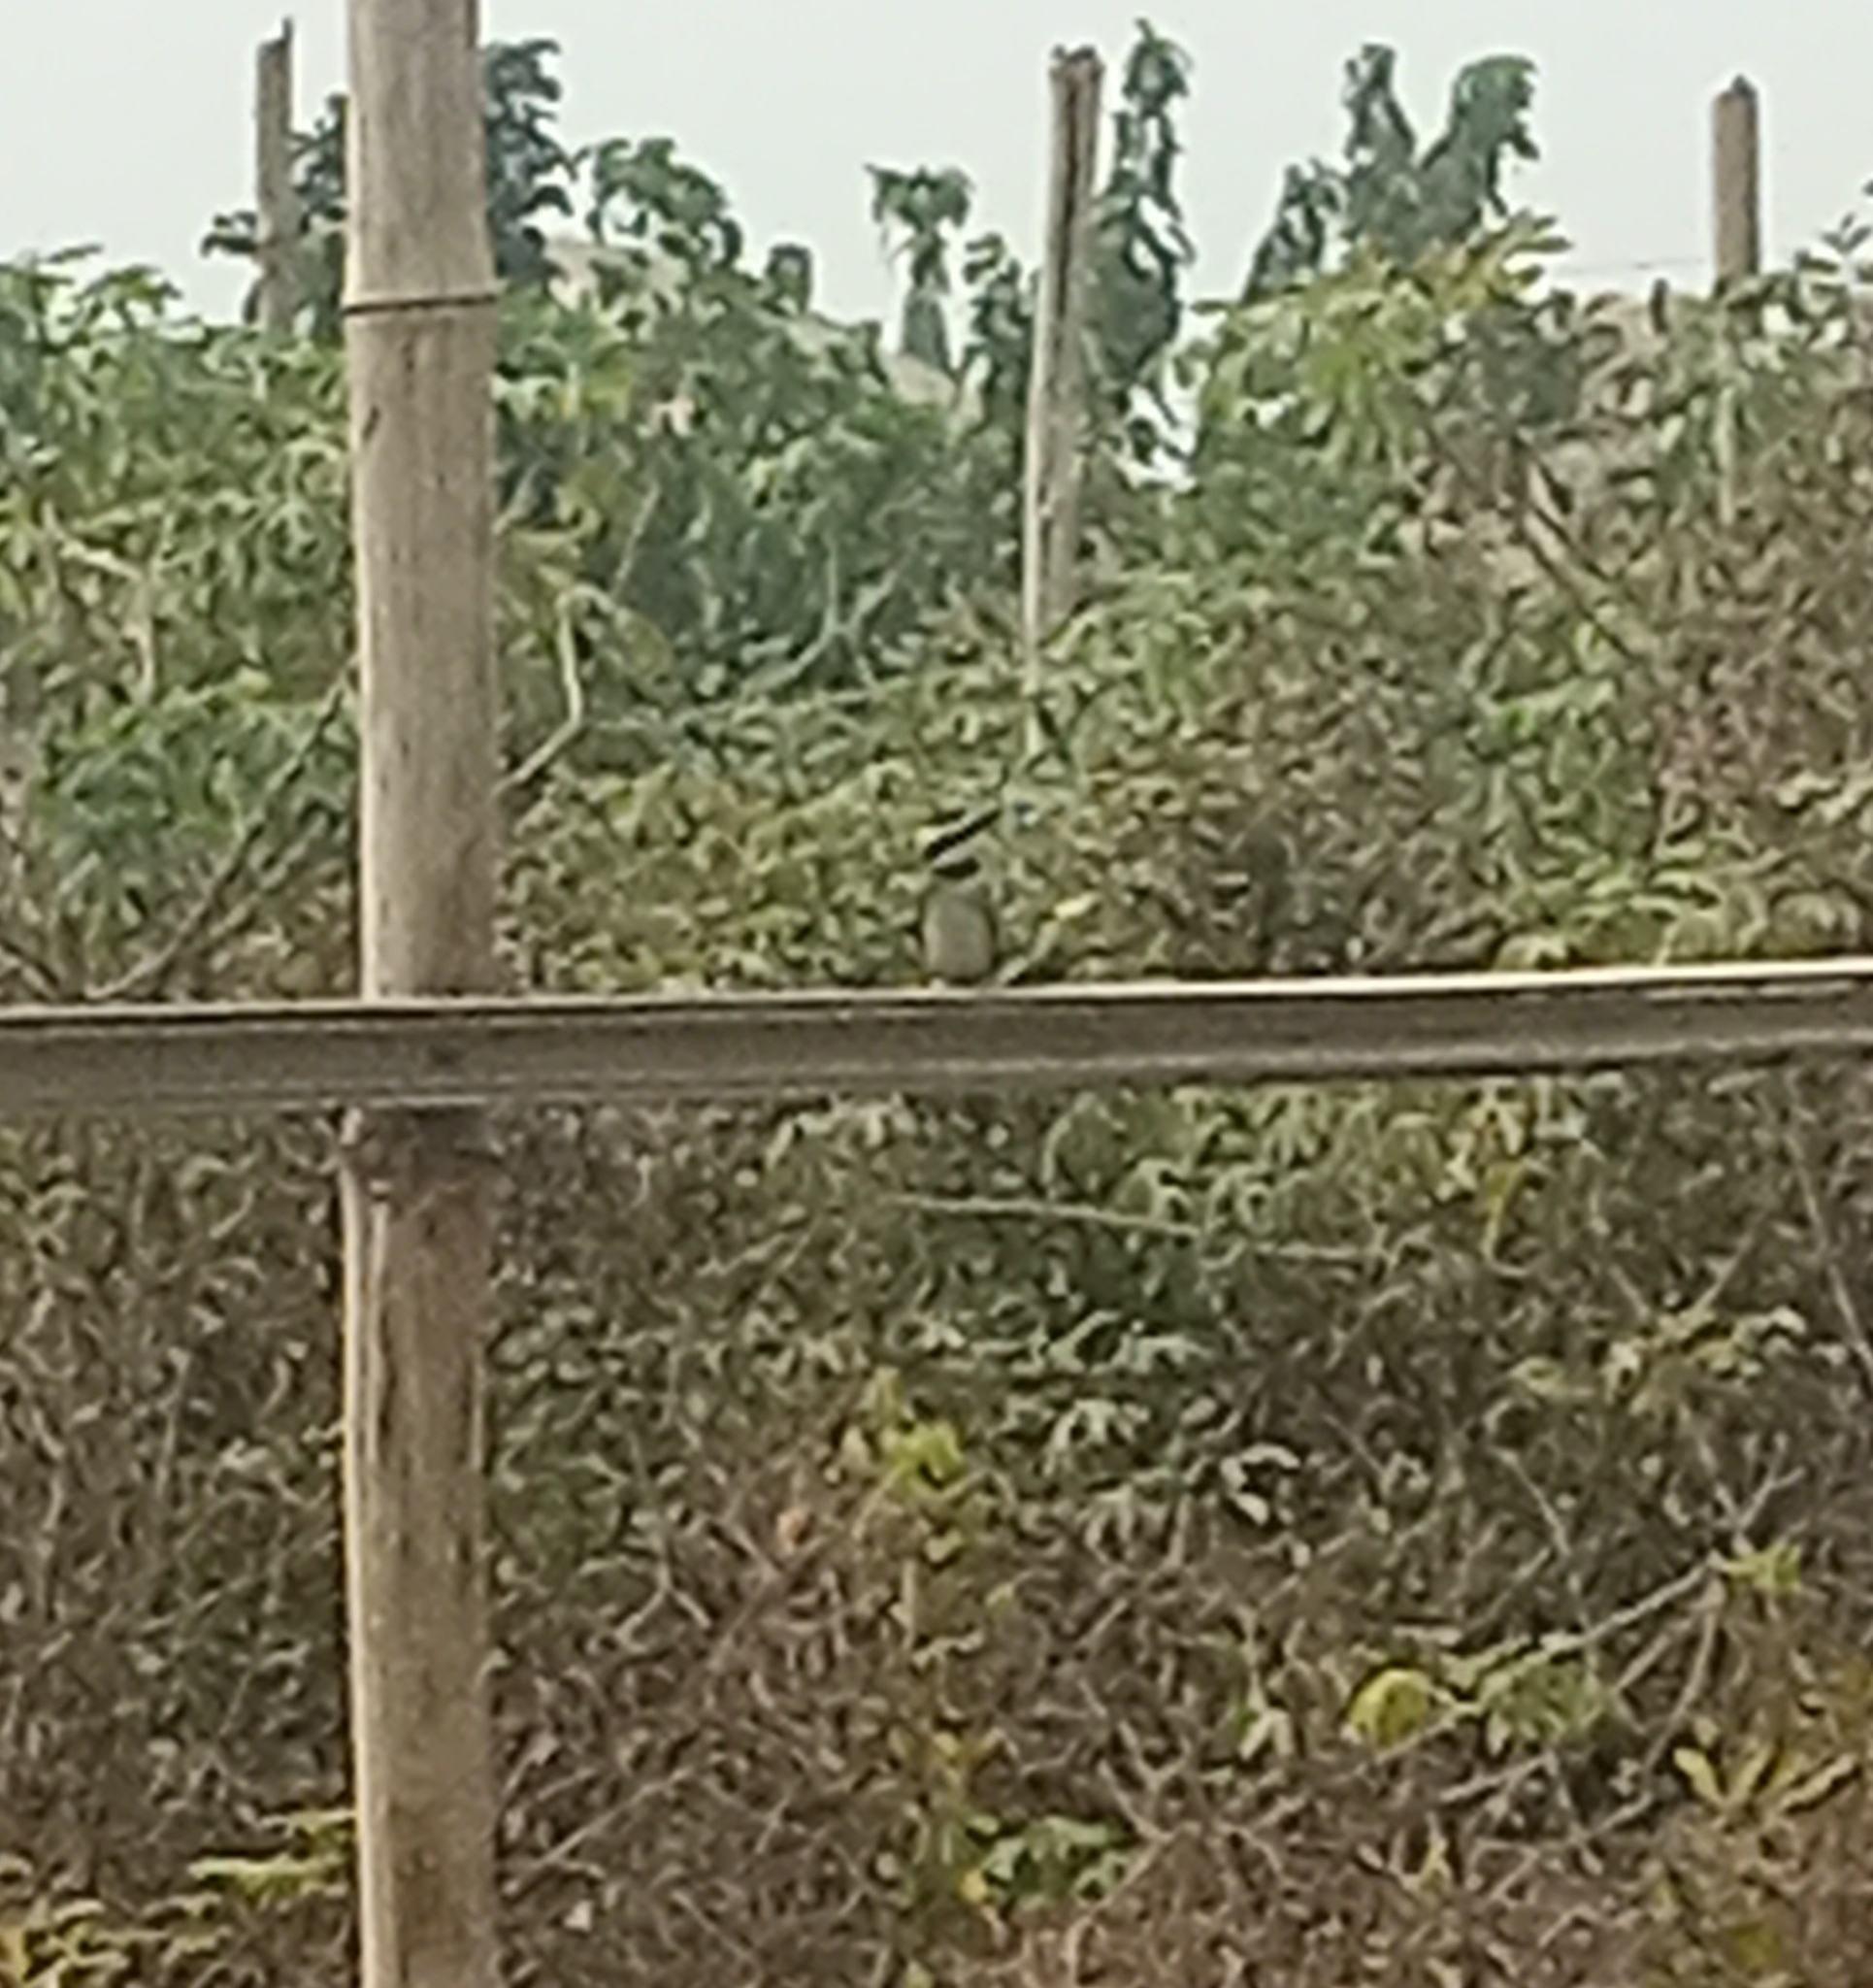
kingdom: Animalia
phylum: Chordata
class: Aves
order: Coraciiformes
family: Meropidae
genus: Merops
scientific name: Merops albicollis
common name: White-throated bee-eater
